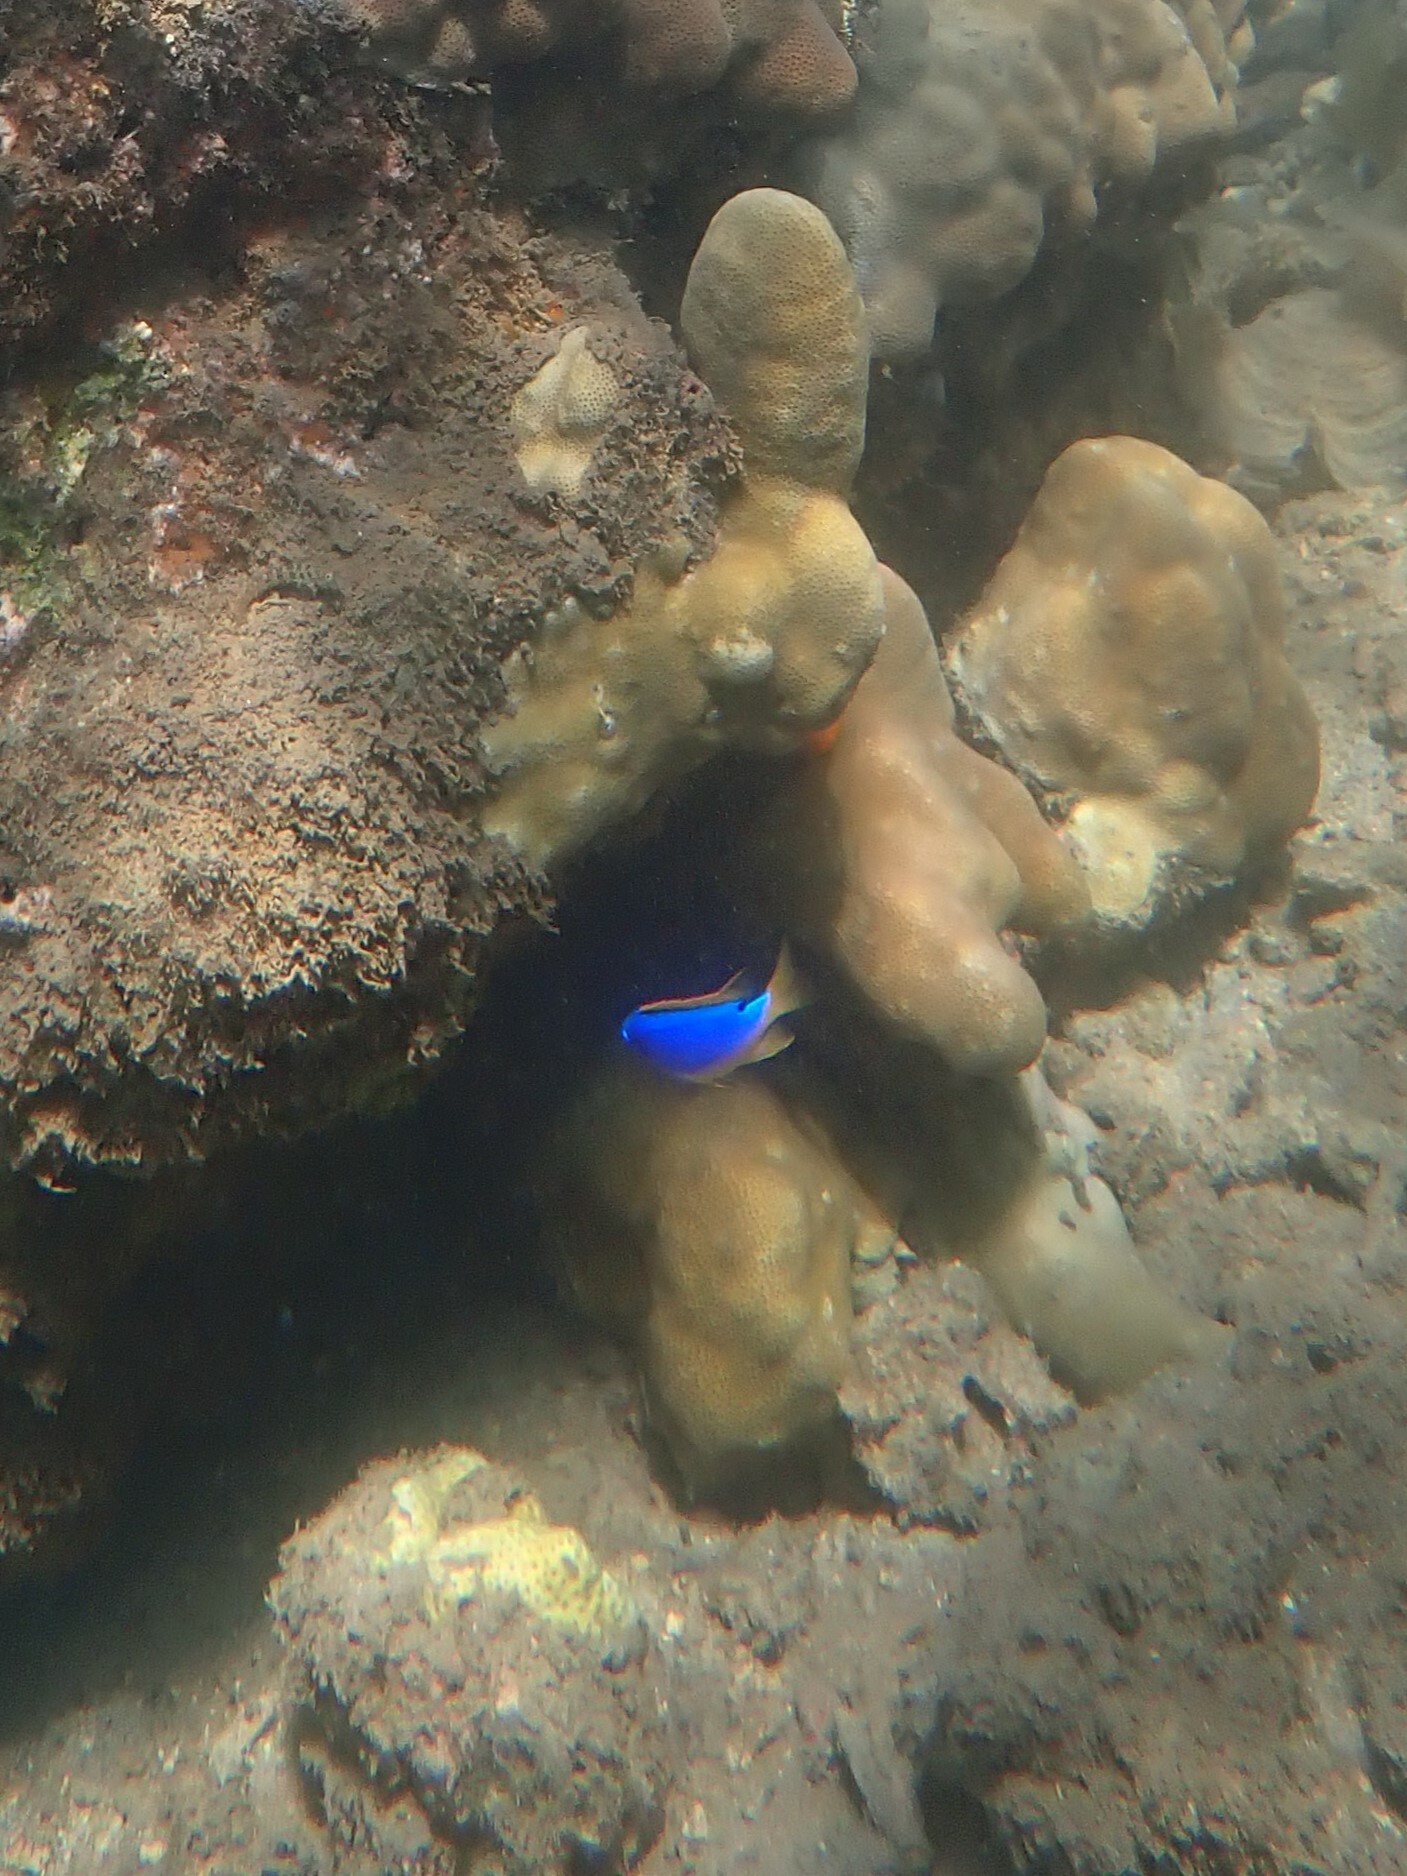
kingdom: Animalia
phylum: Chordata
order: Perciformes
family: Pomacentridae
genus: Chrysiptera
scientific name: Chrysiptera taupou
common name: Fiji damsel
